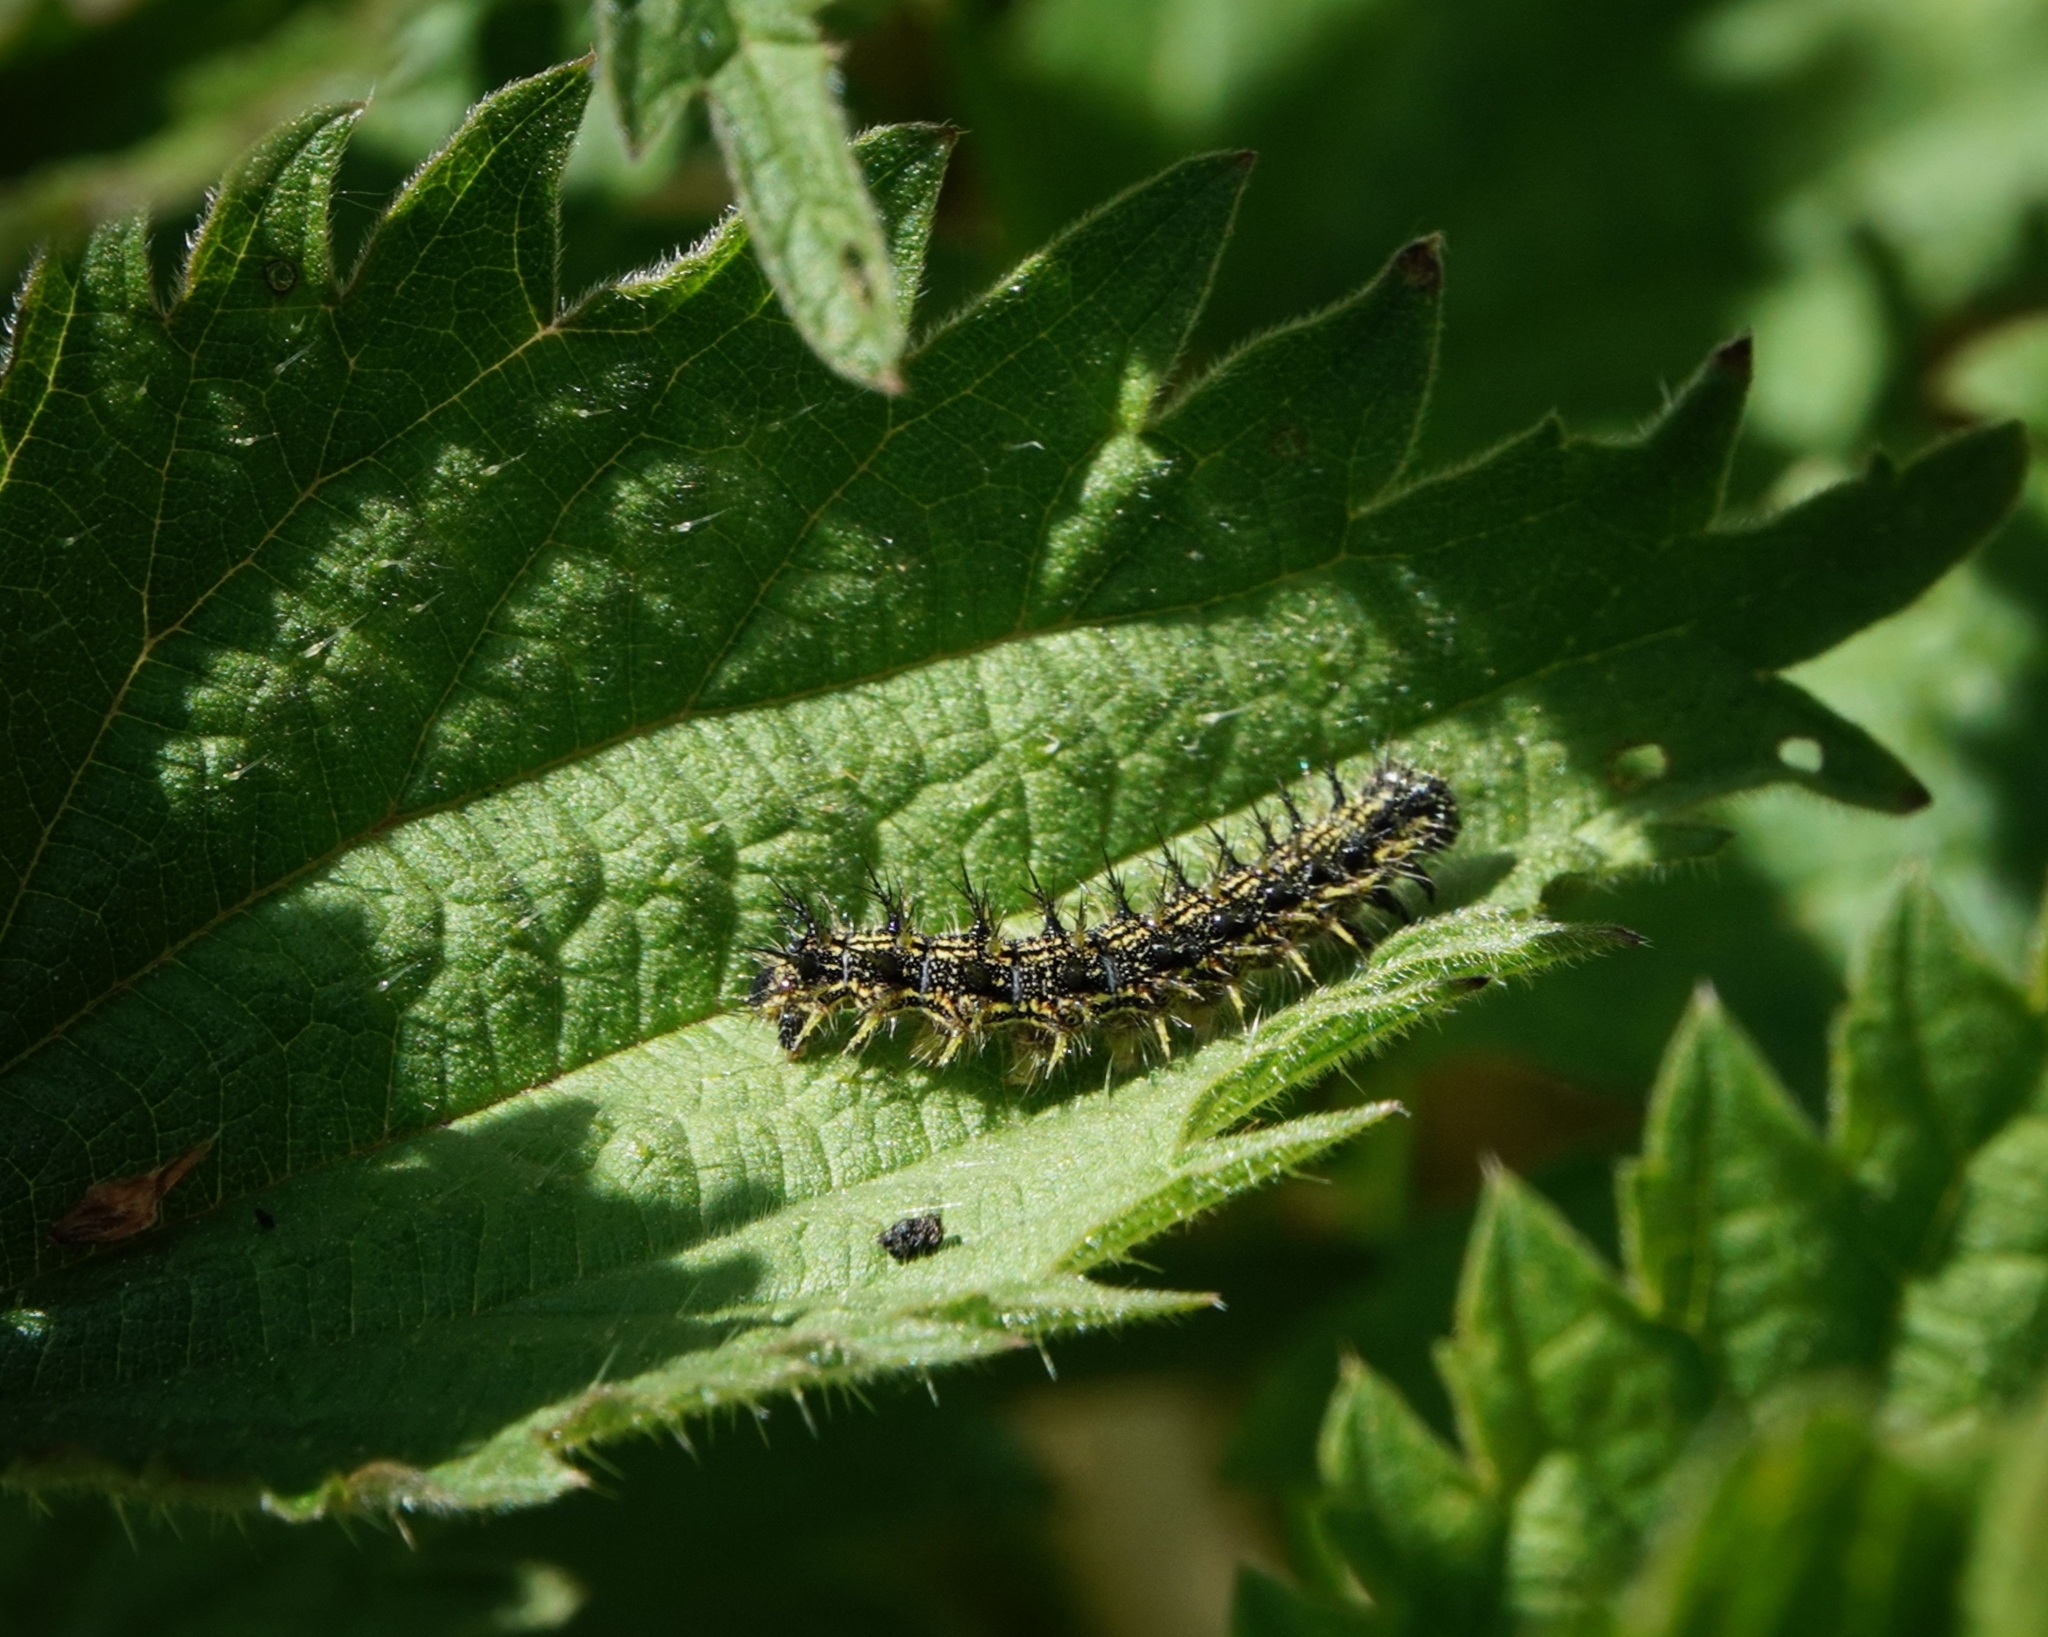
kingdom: Animalia
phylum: Arthropoda
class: Insecta
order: Lepidoptera
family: Nymphalidae
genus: Aglais
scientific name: Aglais urticae
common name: Small tortoiseshell
